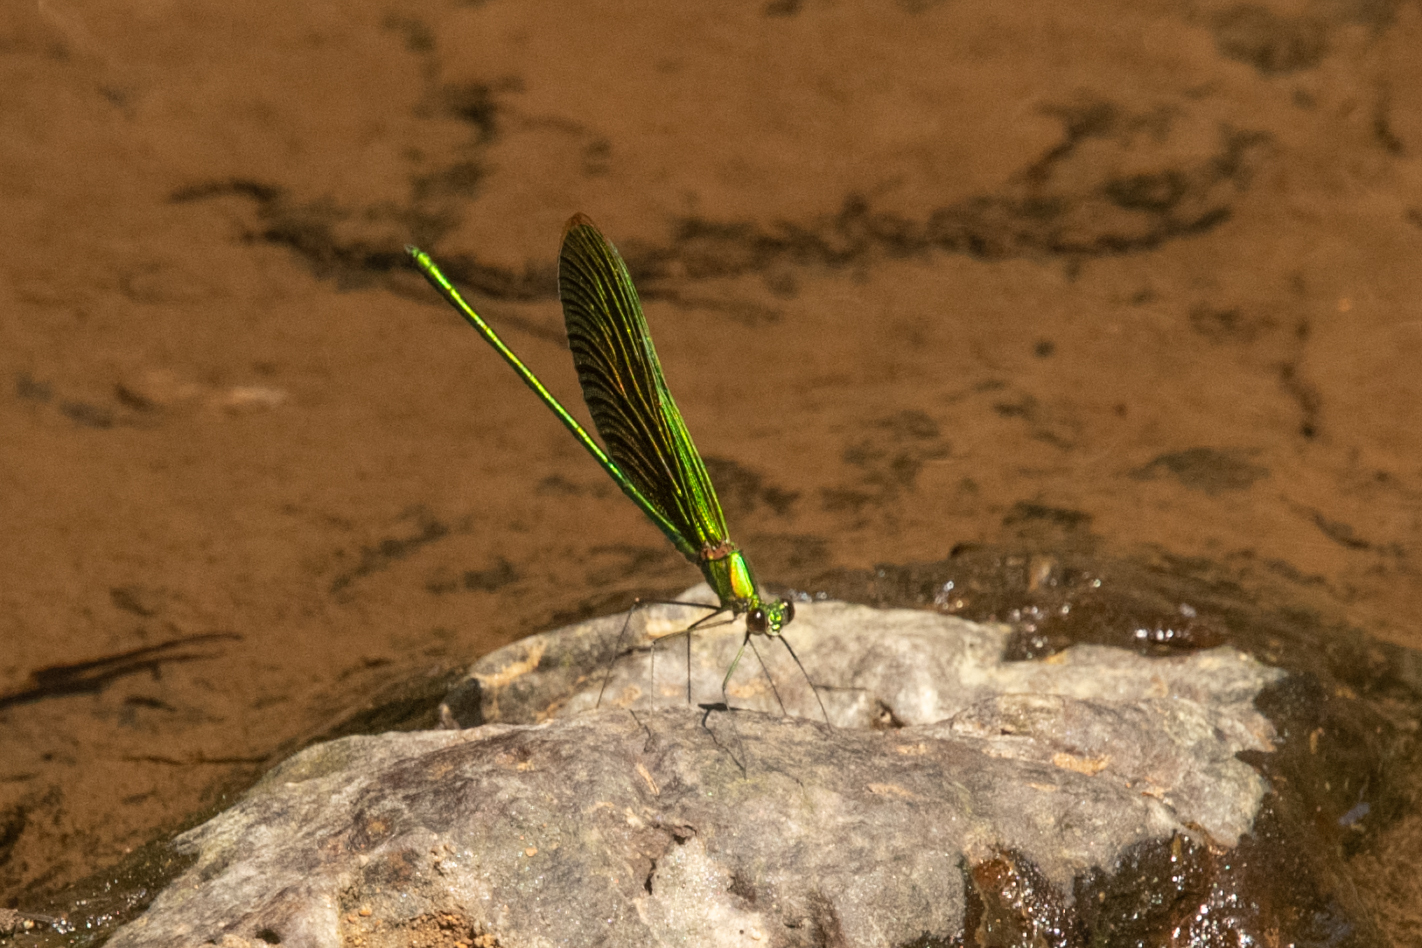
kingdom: Animalia
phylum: Arthropoda
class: Insecta
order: Odonata
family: Calopterygidae
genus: Neurobasis
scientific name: Neurobasis chinensis
